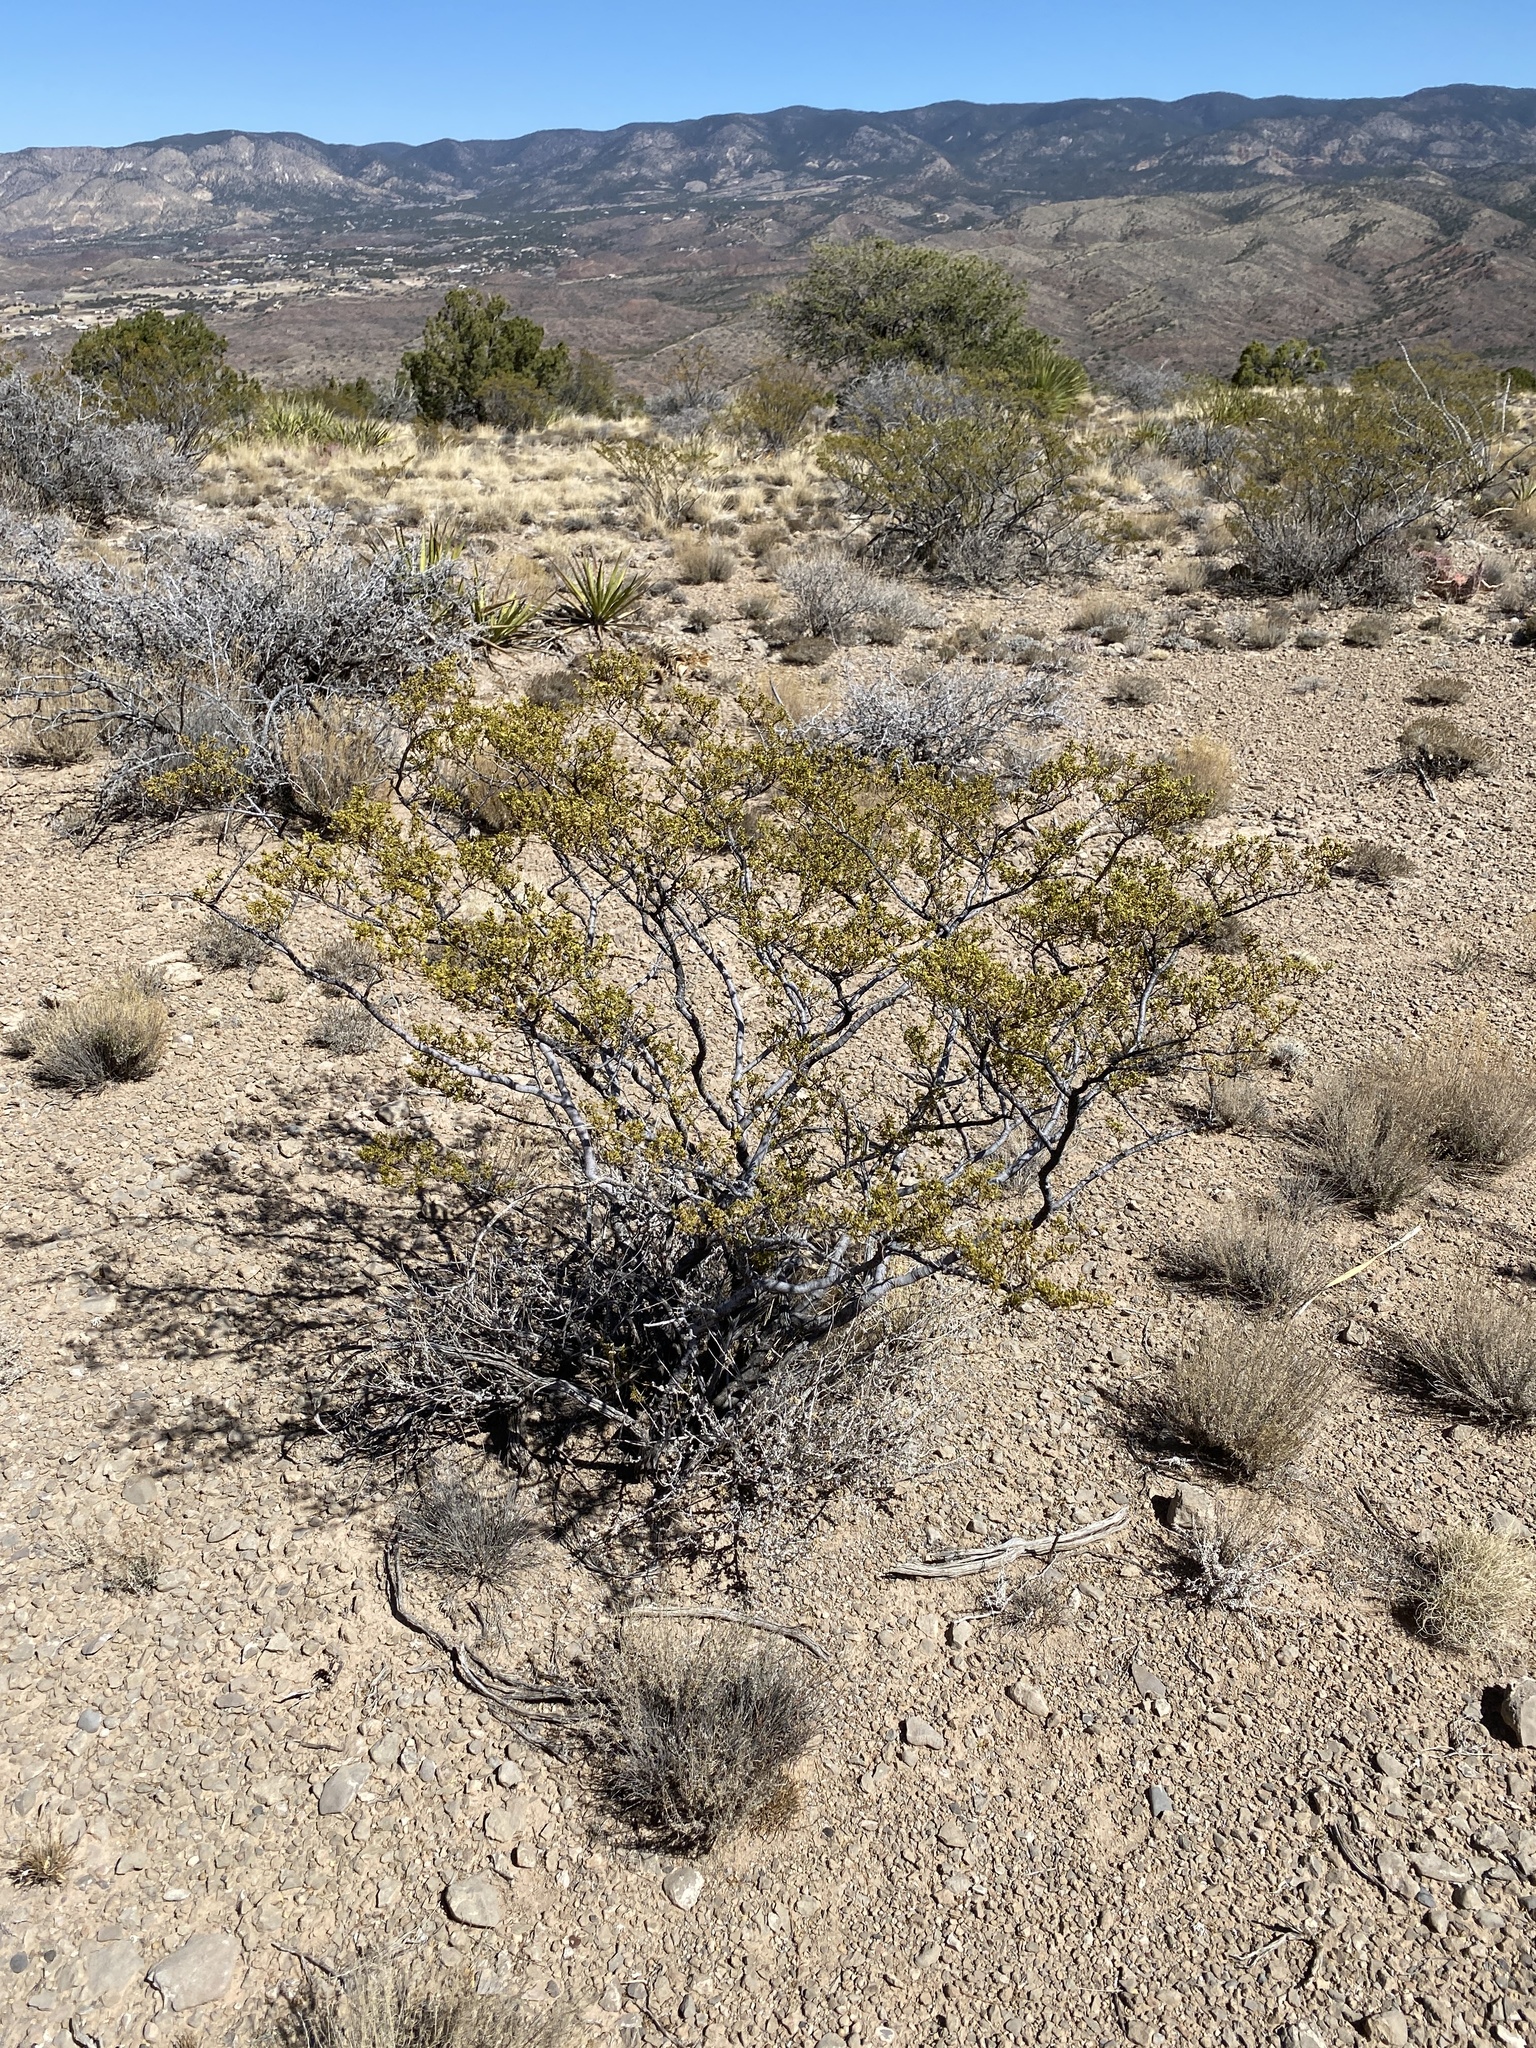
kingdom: Plantae
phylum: Tracheophyta
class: Magnoliopsida
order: Zygophyllales
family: Zygophyllaceae
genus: Larrea
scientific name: Larrea tridentata
